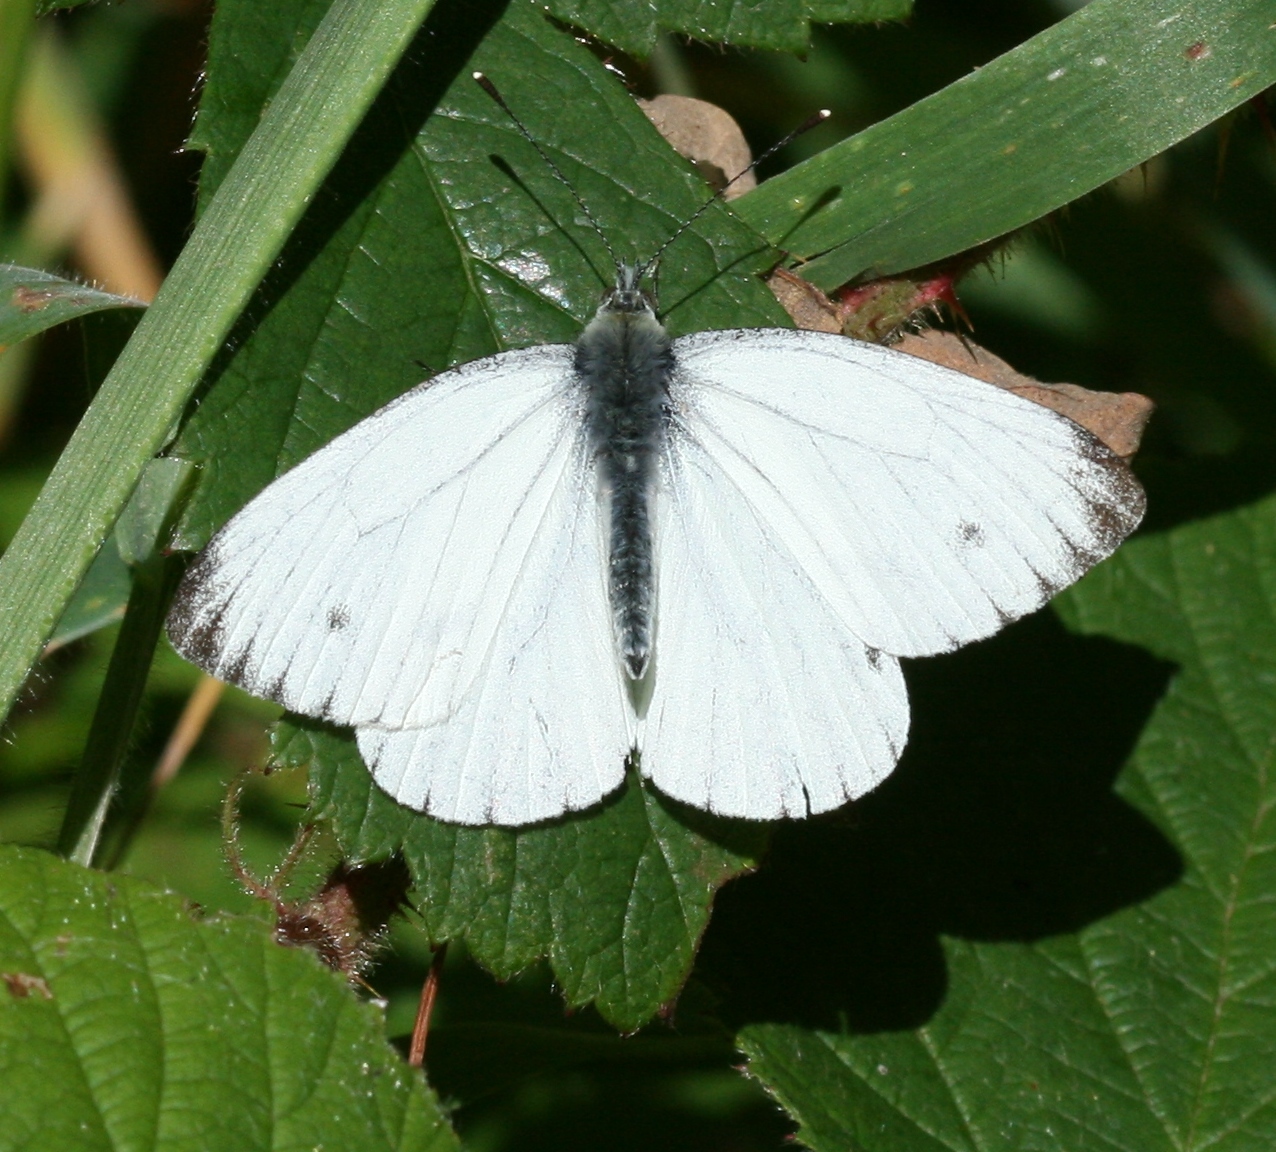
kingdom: Animalia
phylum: Arthropoda
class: Insecta
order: Lepidoptera
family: Pieridae
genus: Pieris
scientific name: Pieris napi
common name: Green-veined white
